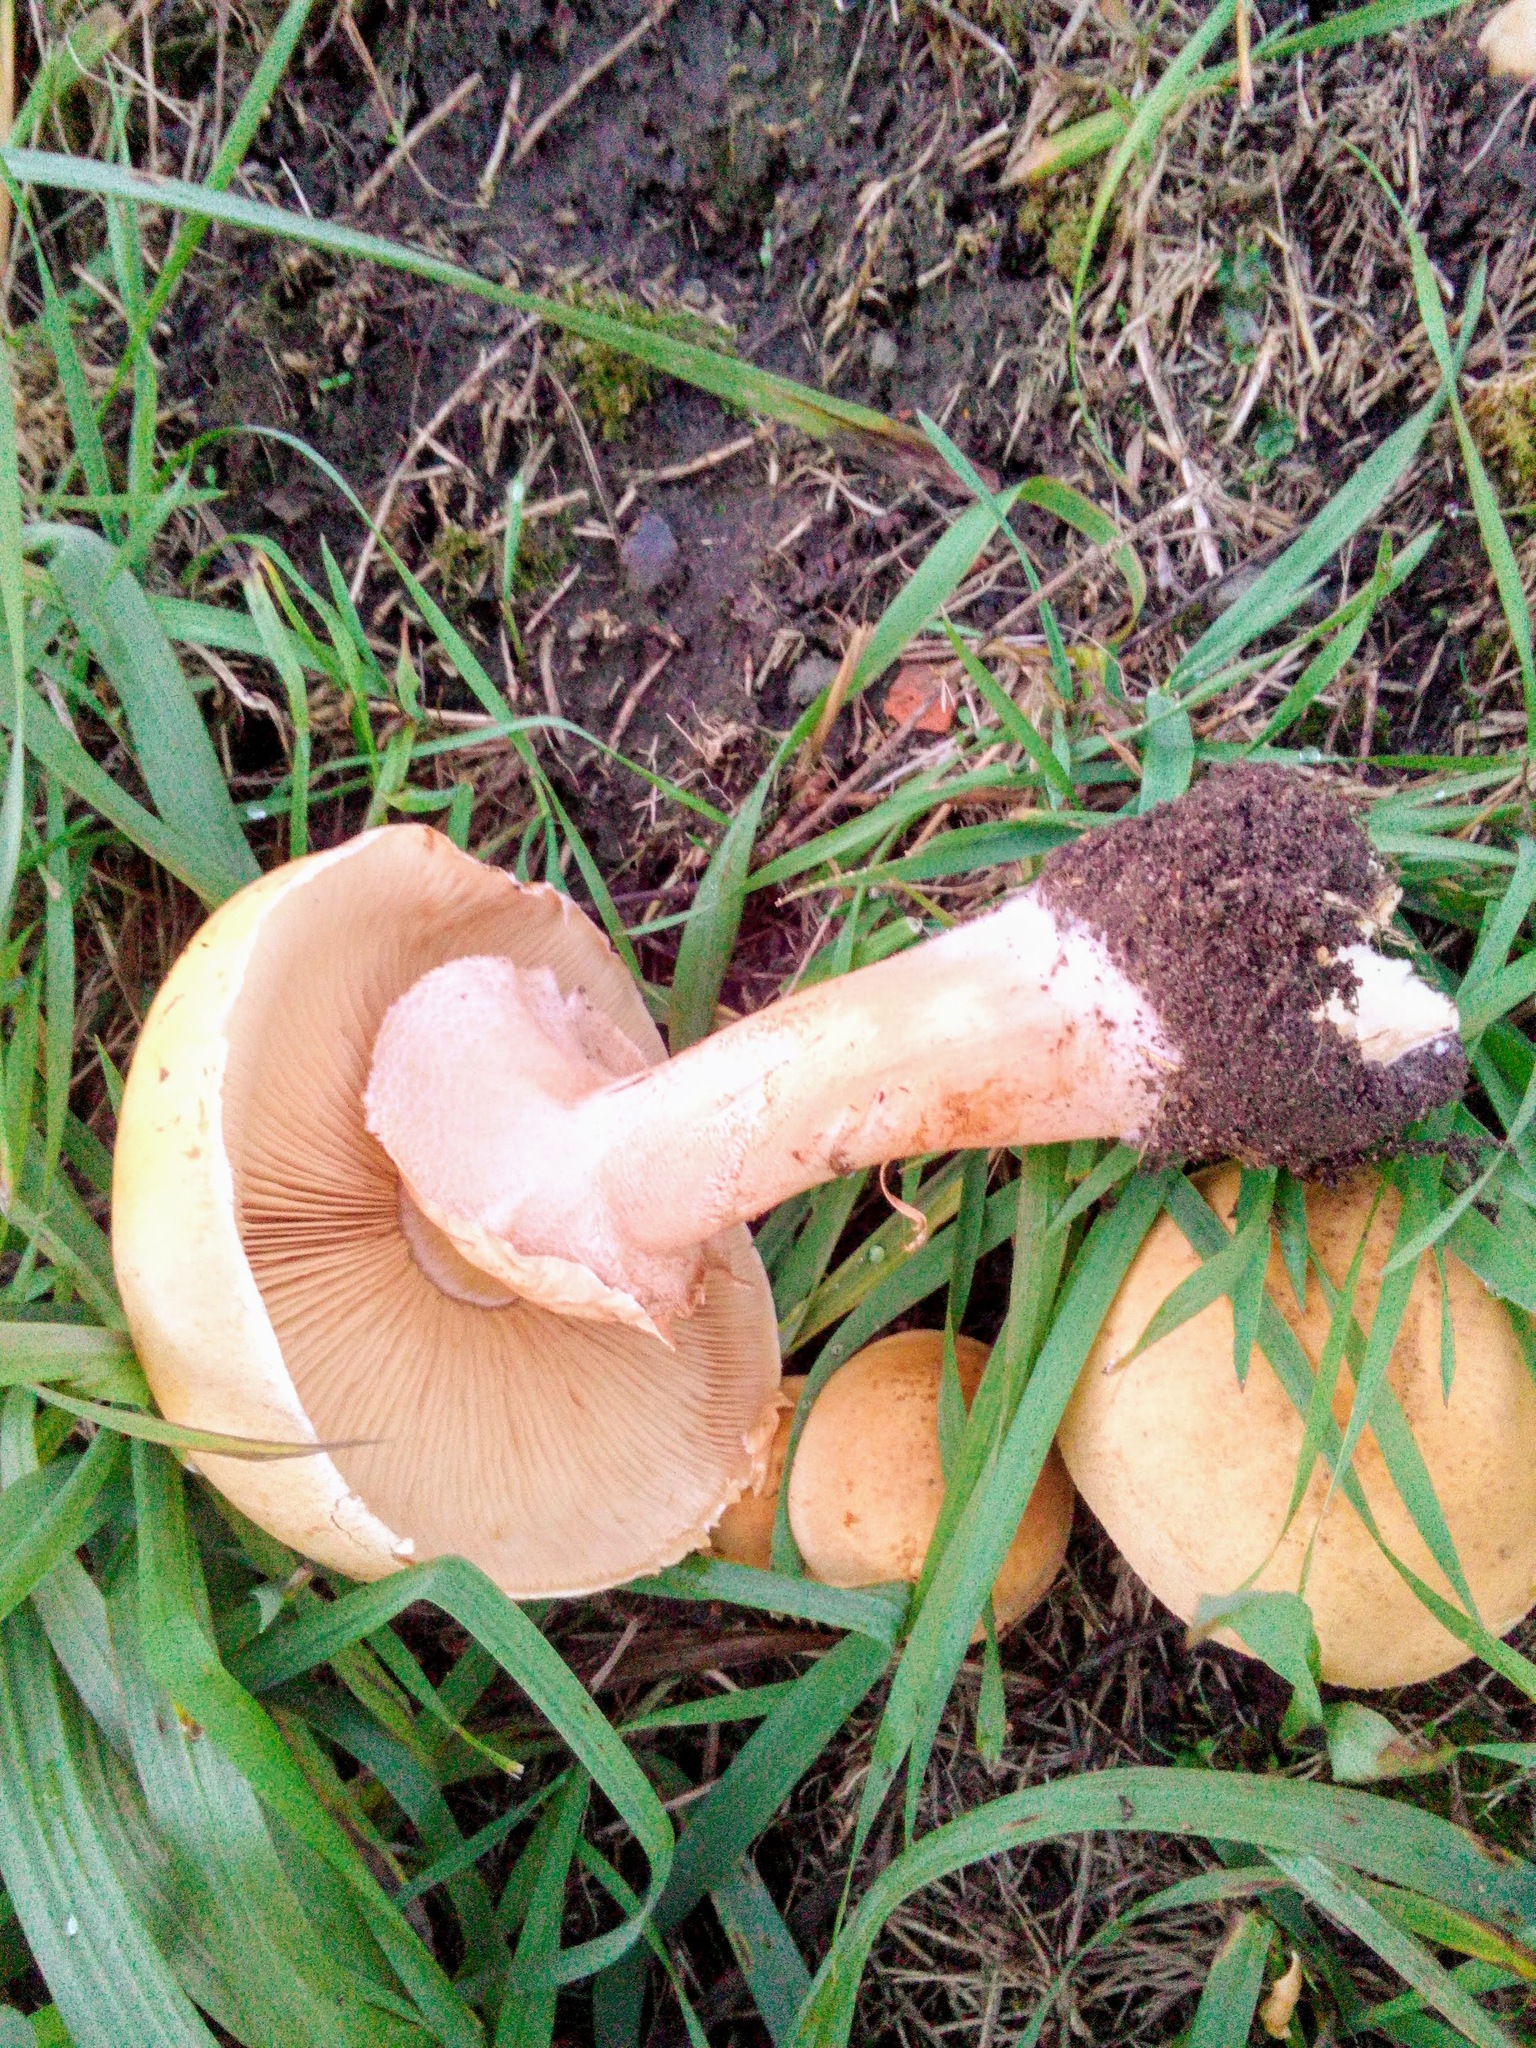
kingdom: Fungi
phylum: Basidiomycota
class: Agaricomycetes
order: Agaricales
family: Tricholomataceae
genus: Phaeolepiota
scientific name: Phaeolepiota aurea
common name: Golden bootleg
